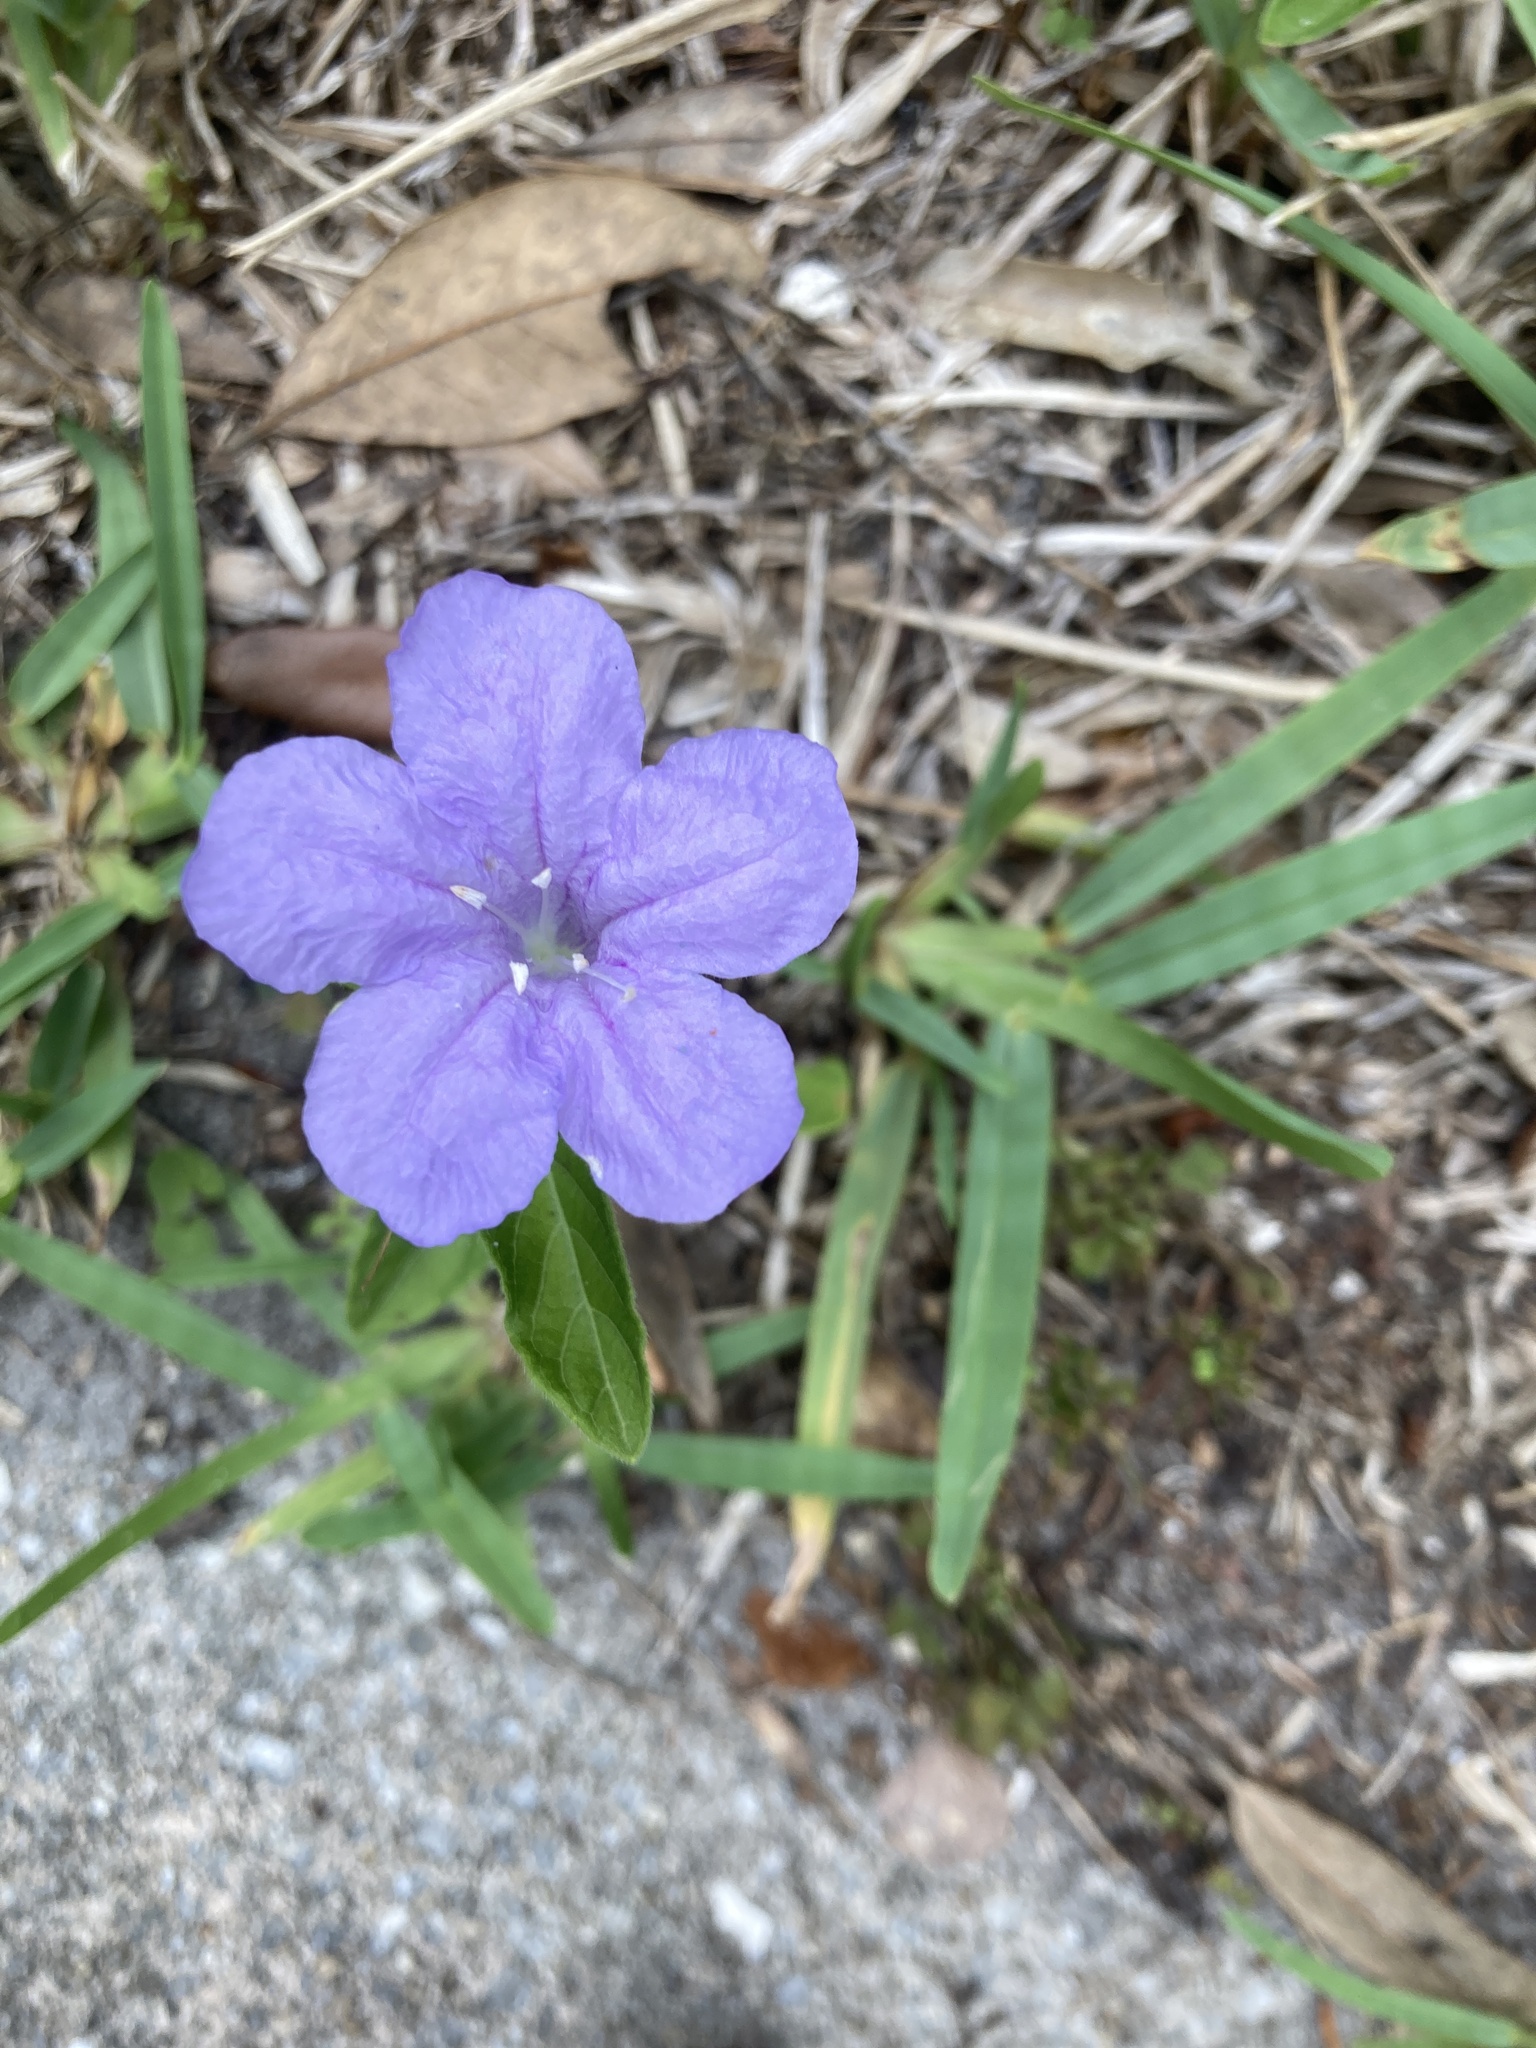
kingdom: Plantae
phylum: Tracheophyta
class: Magnoliopsida
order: Lamiales
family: Acanthaceae
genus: Ruellia
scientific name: Ruellia caroliniensis
